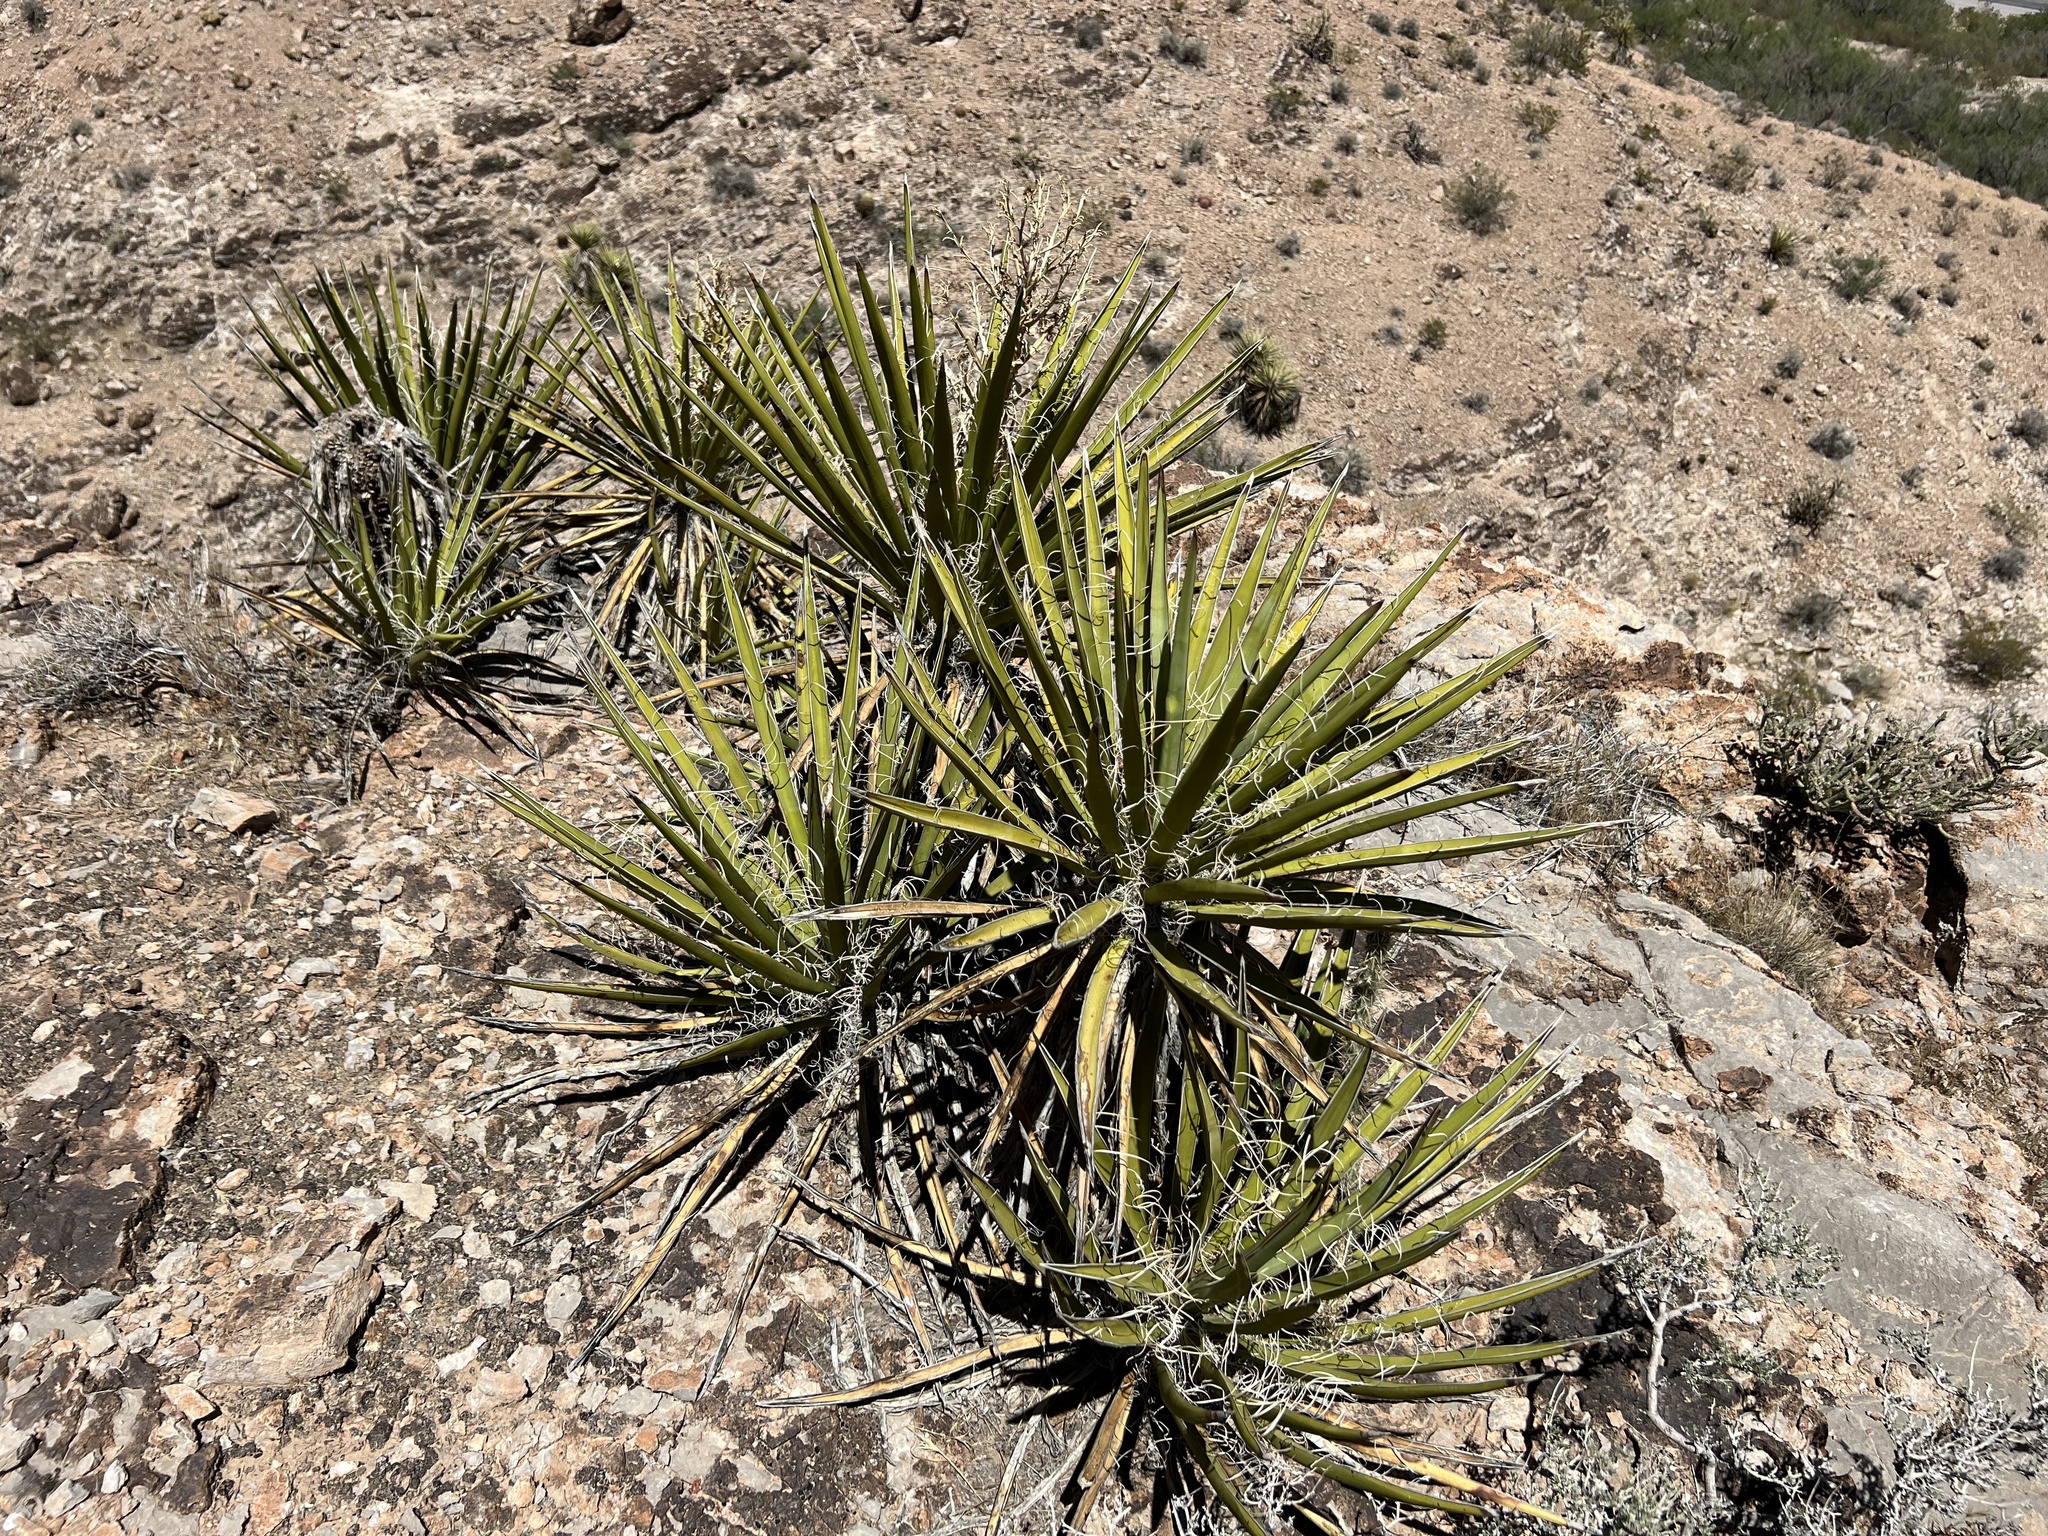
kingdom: Plantae
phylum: Tracheophyta
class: Liliopsida
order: Asparagales
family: Asparagaceae
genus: Yucca
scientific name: Yucca schidigera
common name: Mojave yucca
